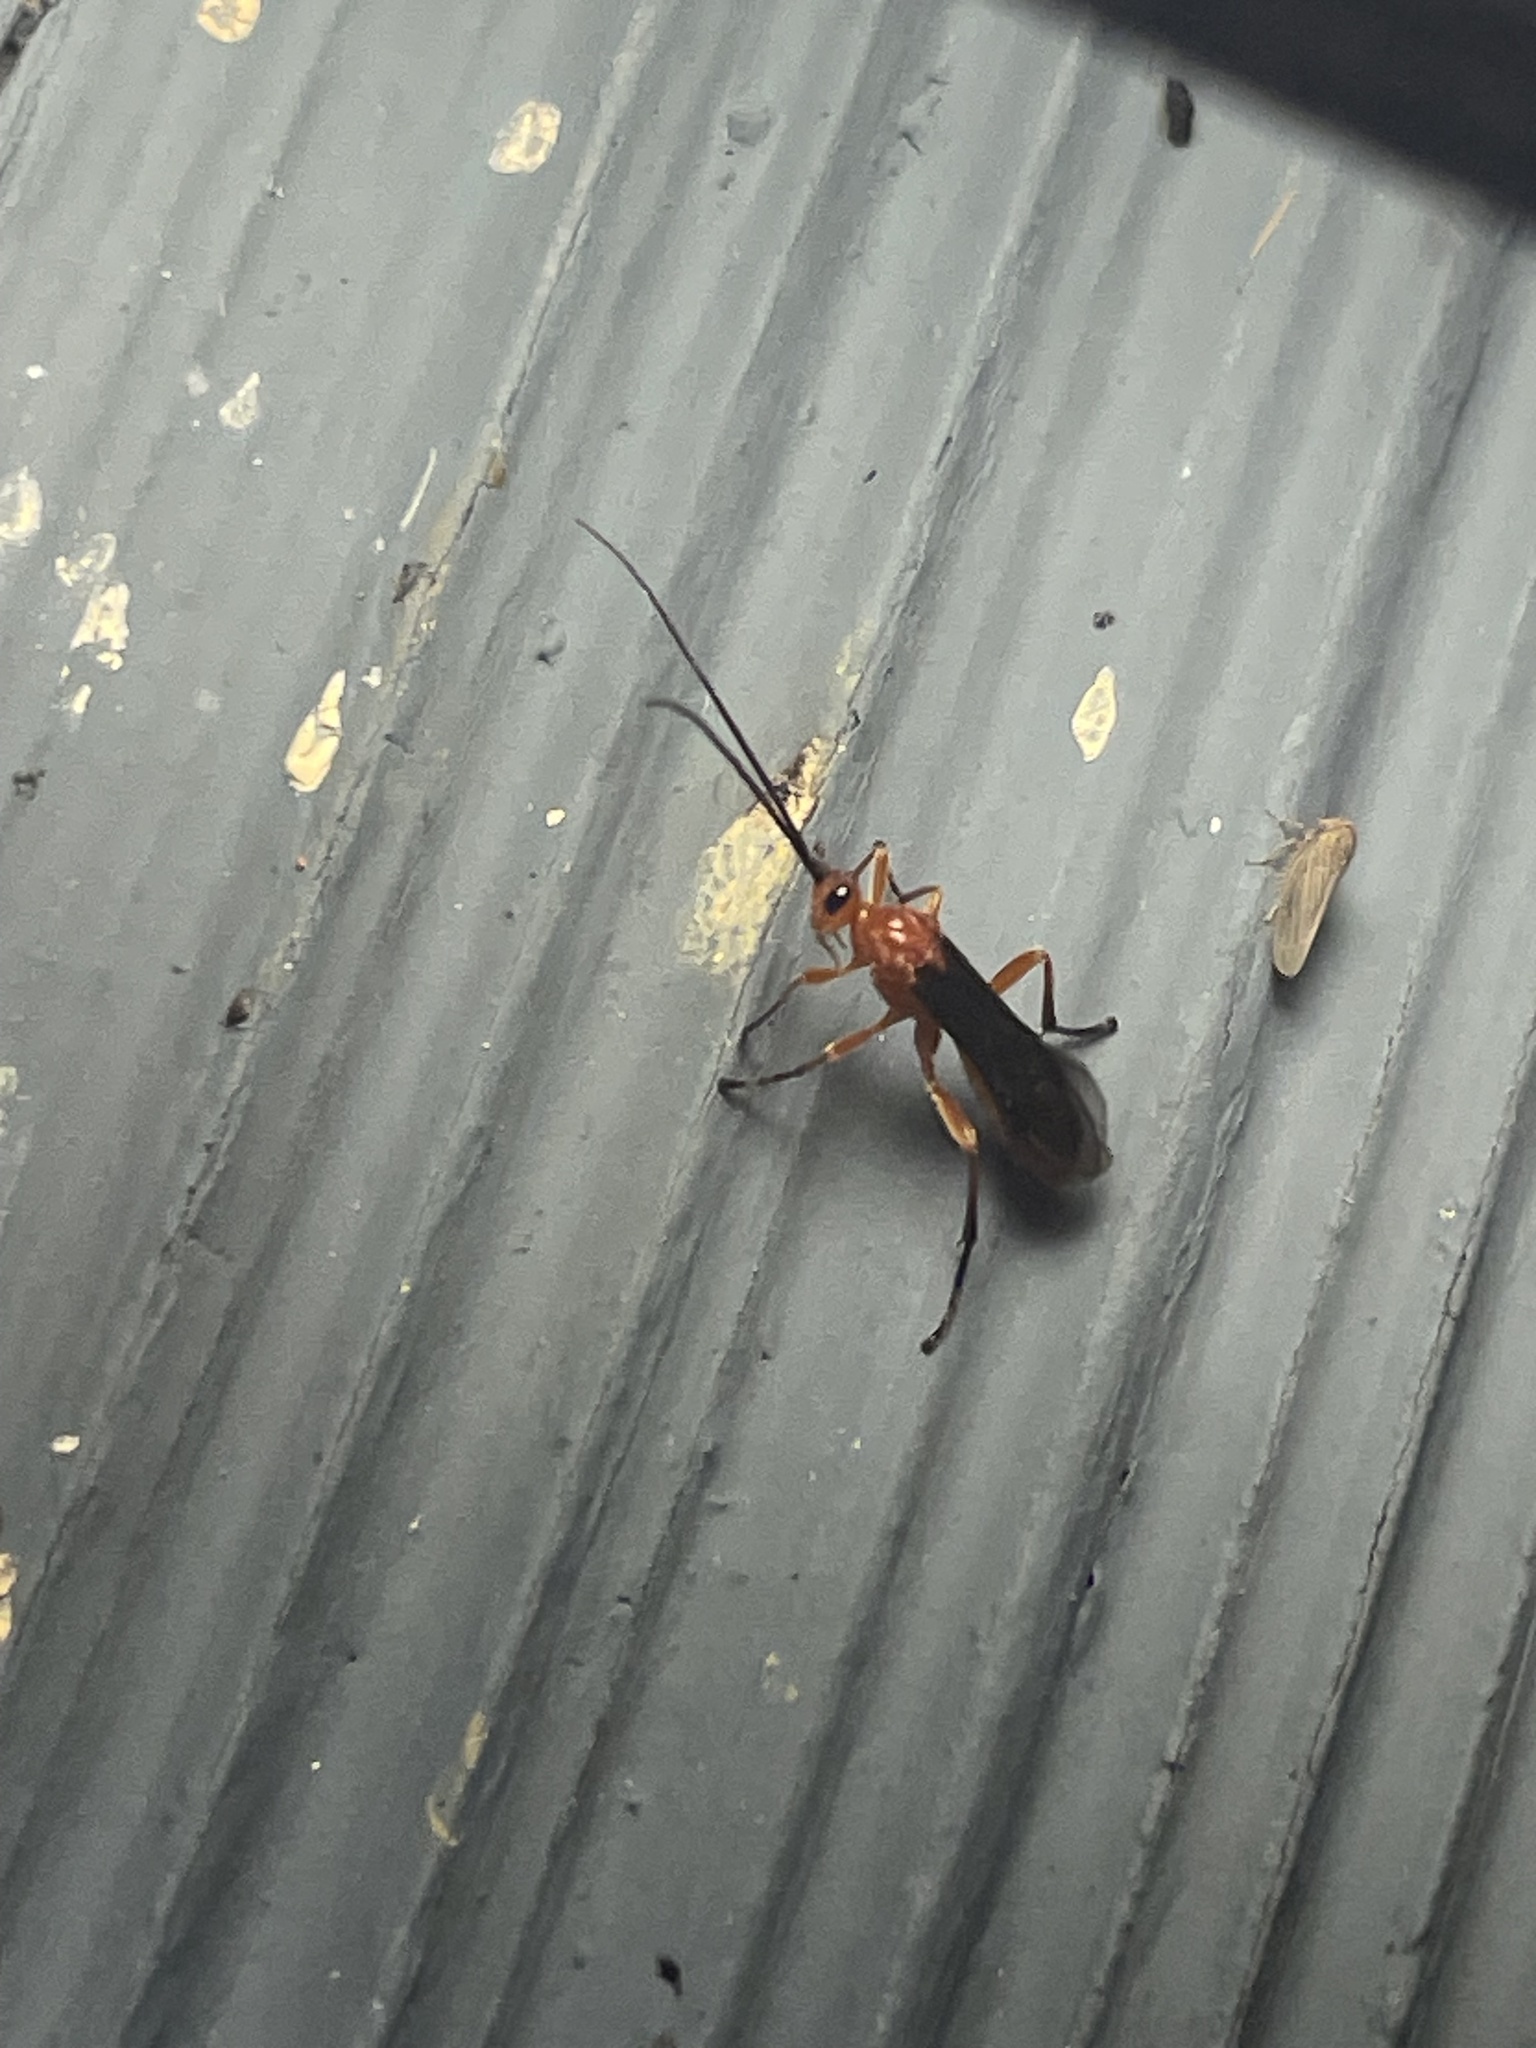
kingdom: Animalia
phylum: Arthropoda
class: Insecta
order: Hymenoptera
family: Braconidae
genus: Aleiodes
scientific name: Aleiodes politiceps
